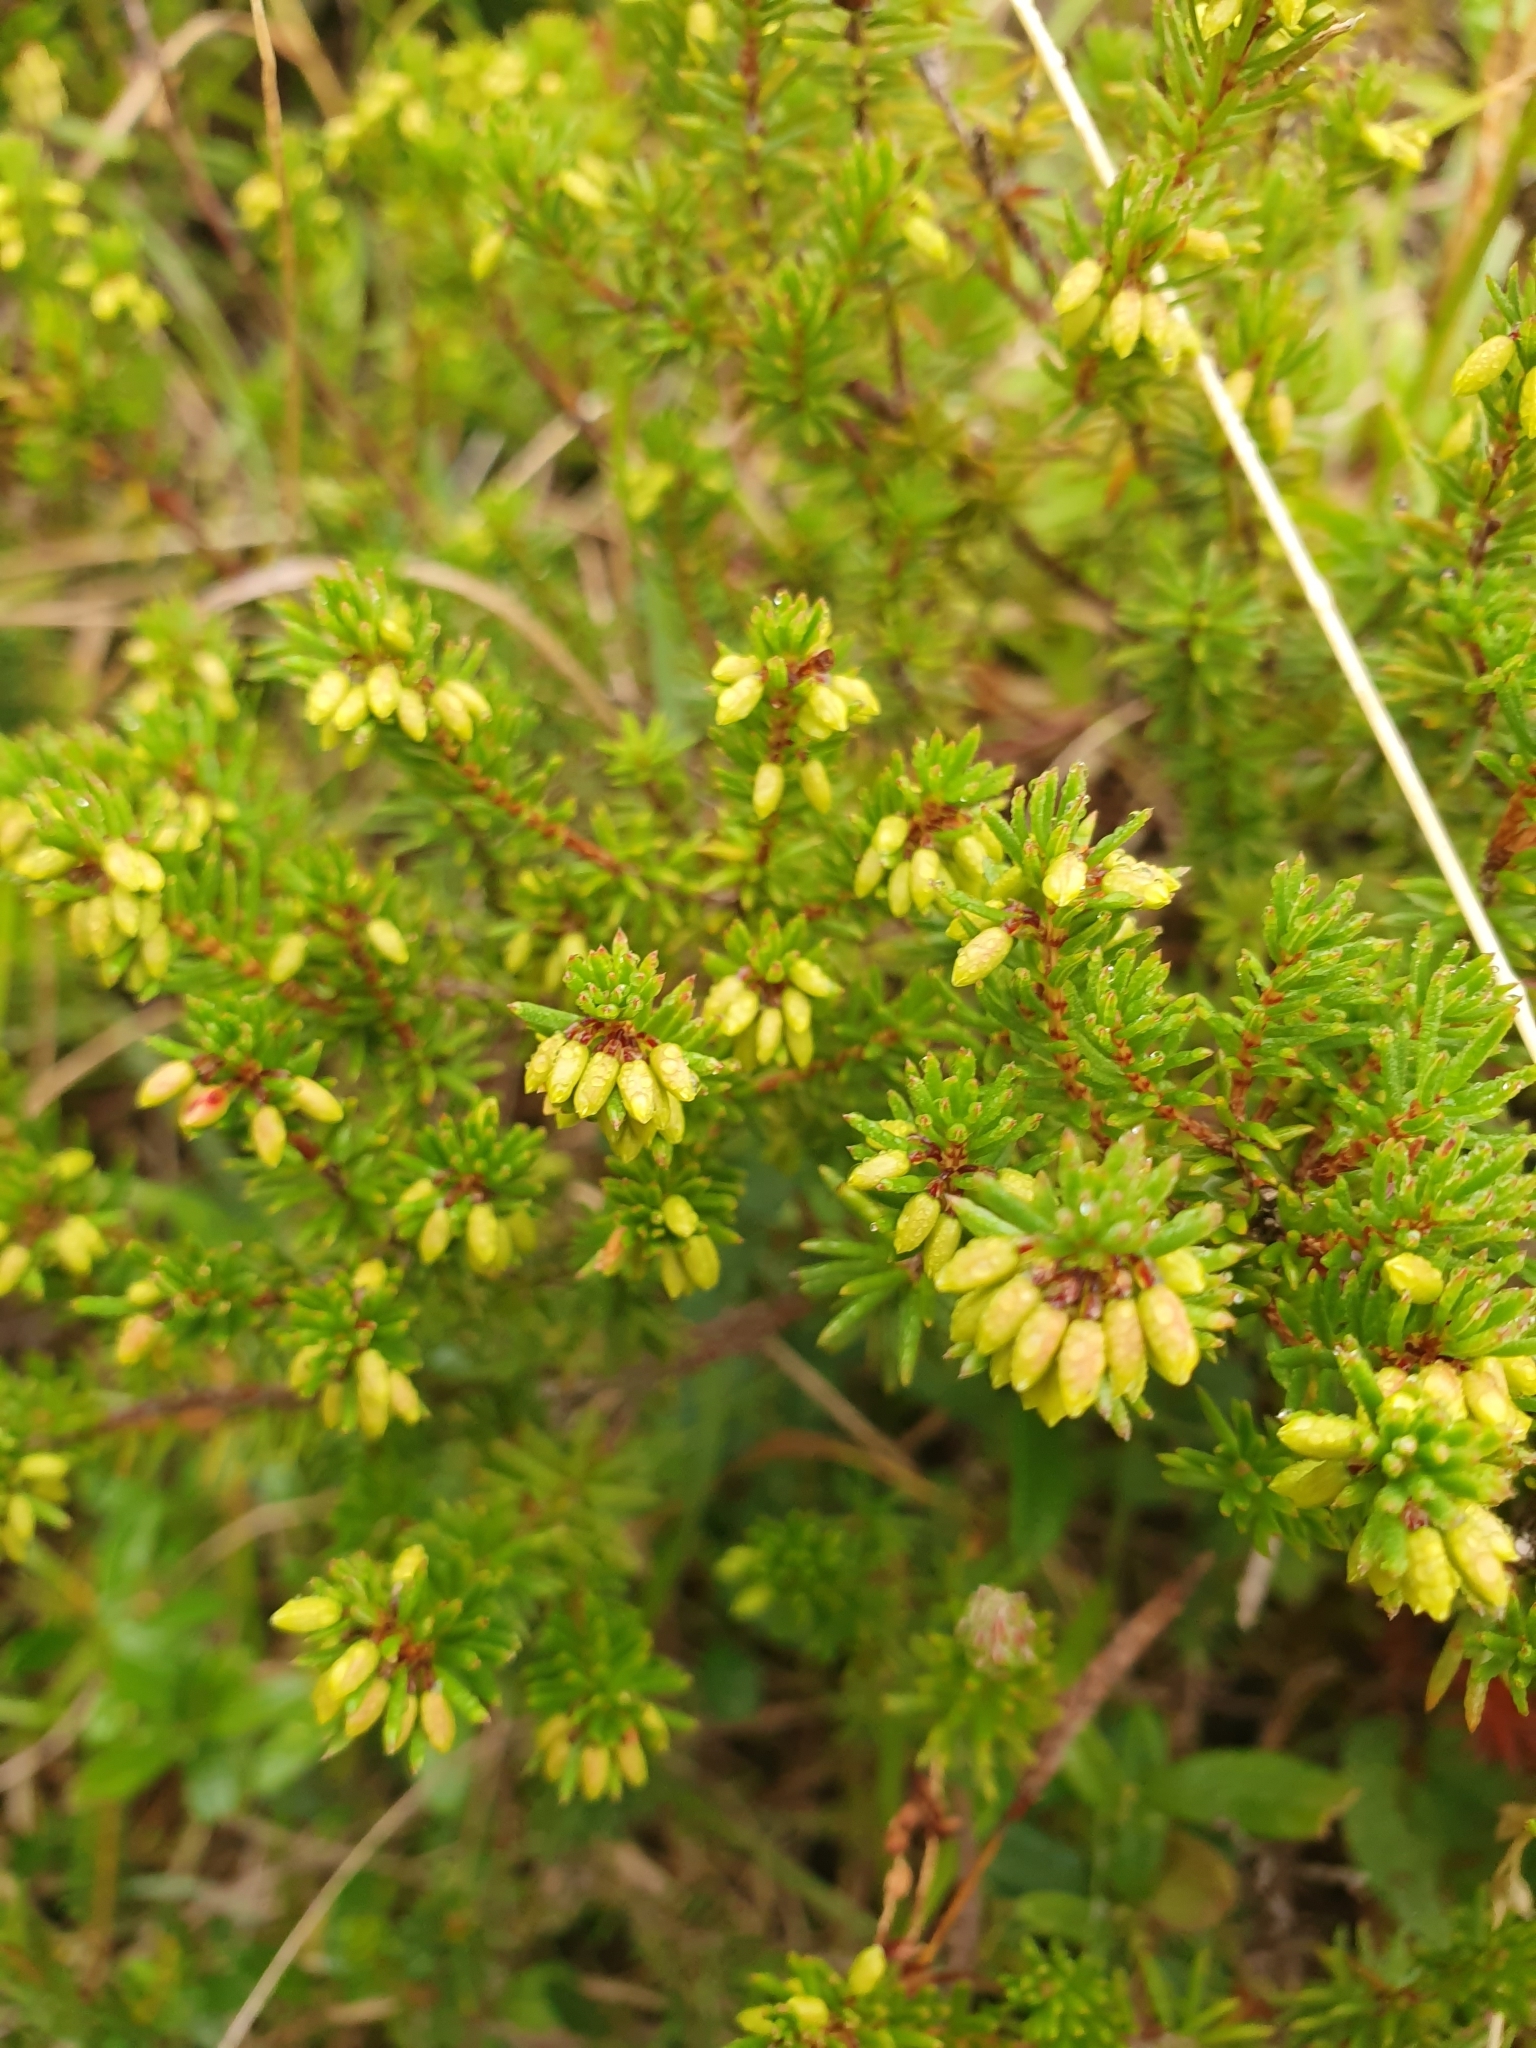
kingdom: Plantae
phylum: Tracheophyta
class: Magnoliopsida
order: Ericales
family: Ericaceae
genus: Erica
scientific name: Erica carnea
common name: Winter heath
